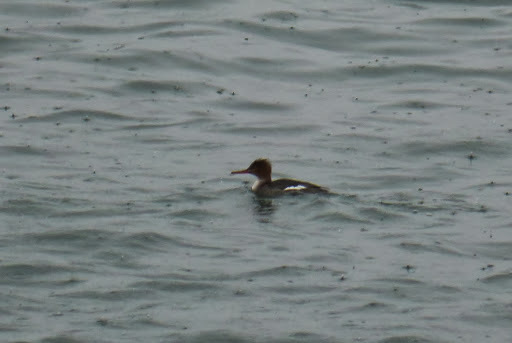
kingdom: Animalia
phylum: Chordata
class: Aves
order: Anseriformes
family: Anatidae
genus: Mergus
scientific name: Mergus serrator
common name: Red-breasted merganser
